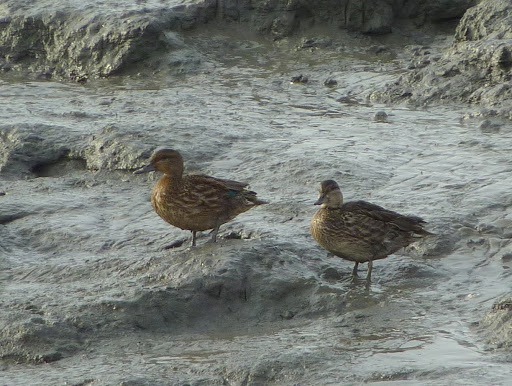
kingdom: Animalia
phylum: Chordata
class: Aves
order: Anseriformes
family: Anatidae
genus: Anas
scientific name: Anas crecca
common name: Eurasian teal
